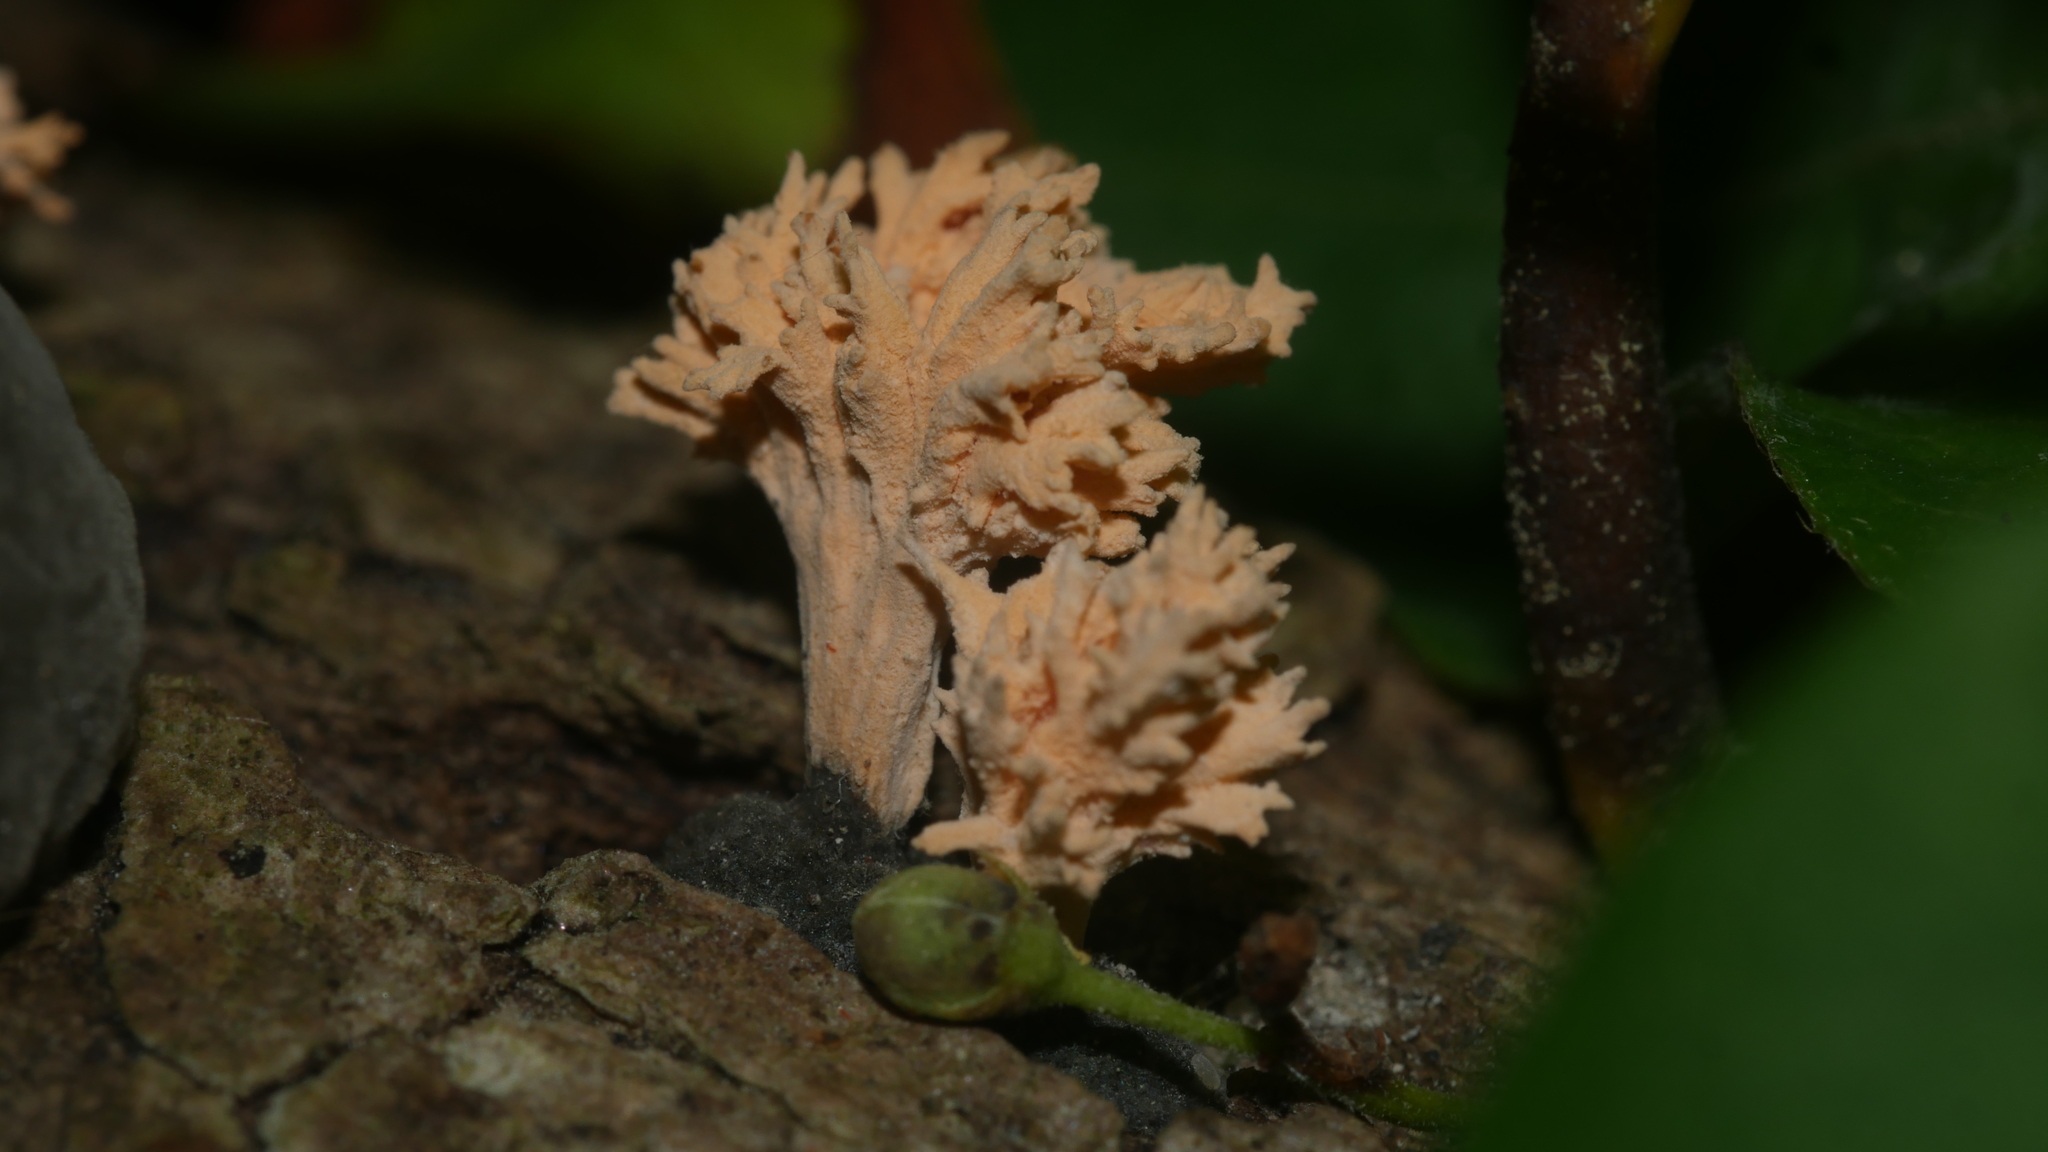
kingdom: Fungi
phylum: Ascomycota
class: Sordariomycetes
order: Xylariales
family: Xylariaceae
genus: Xylaria
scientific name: Xylaria cubensis
